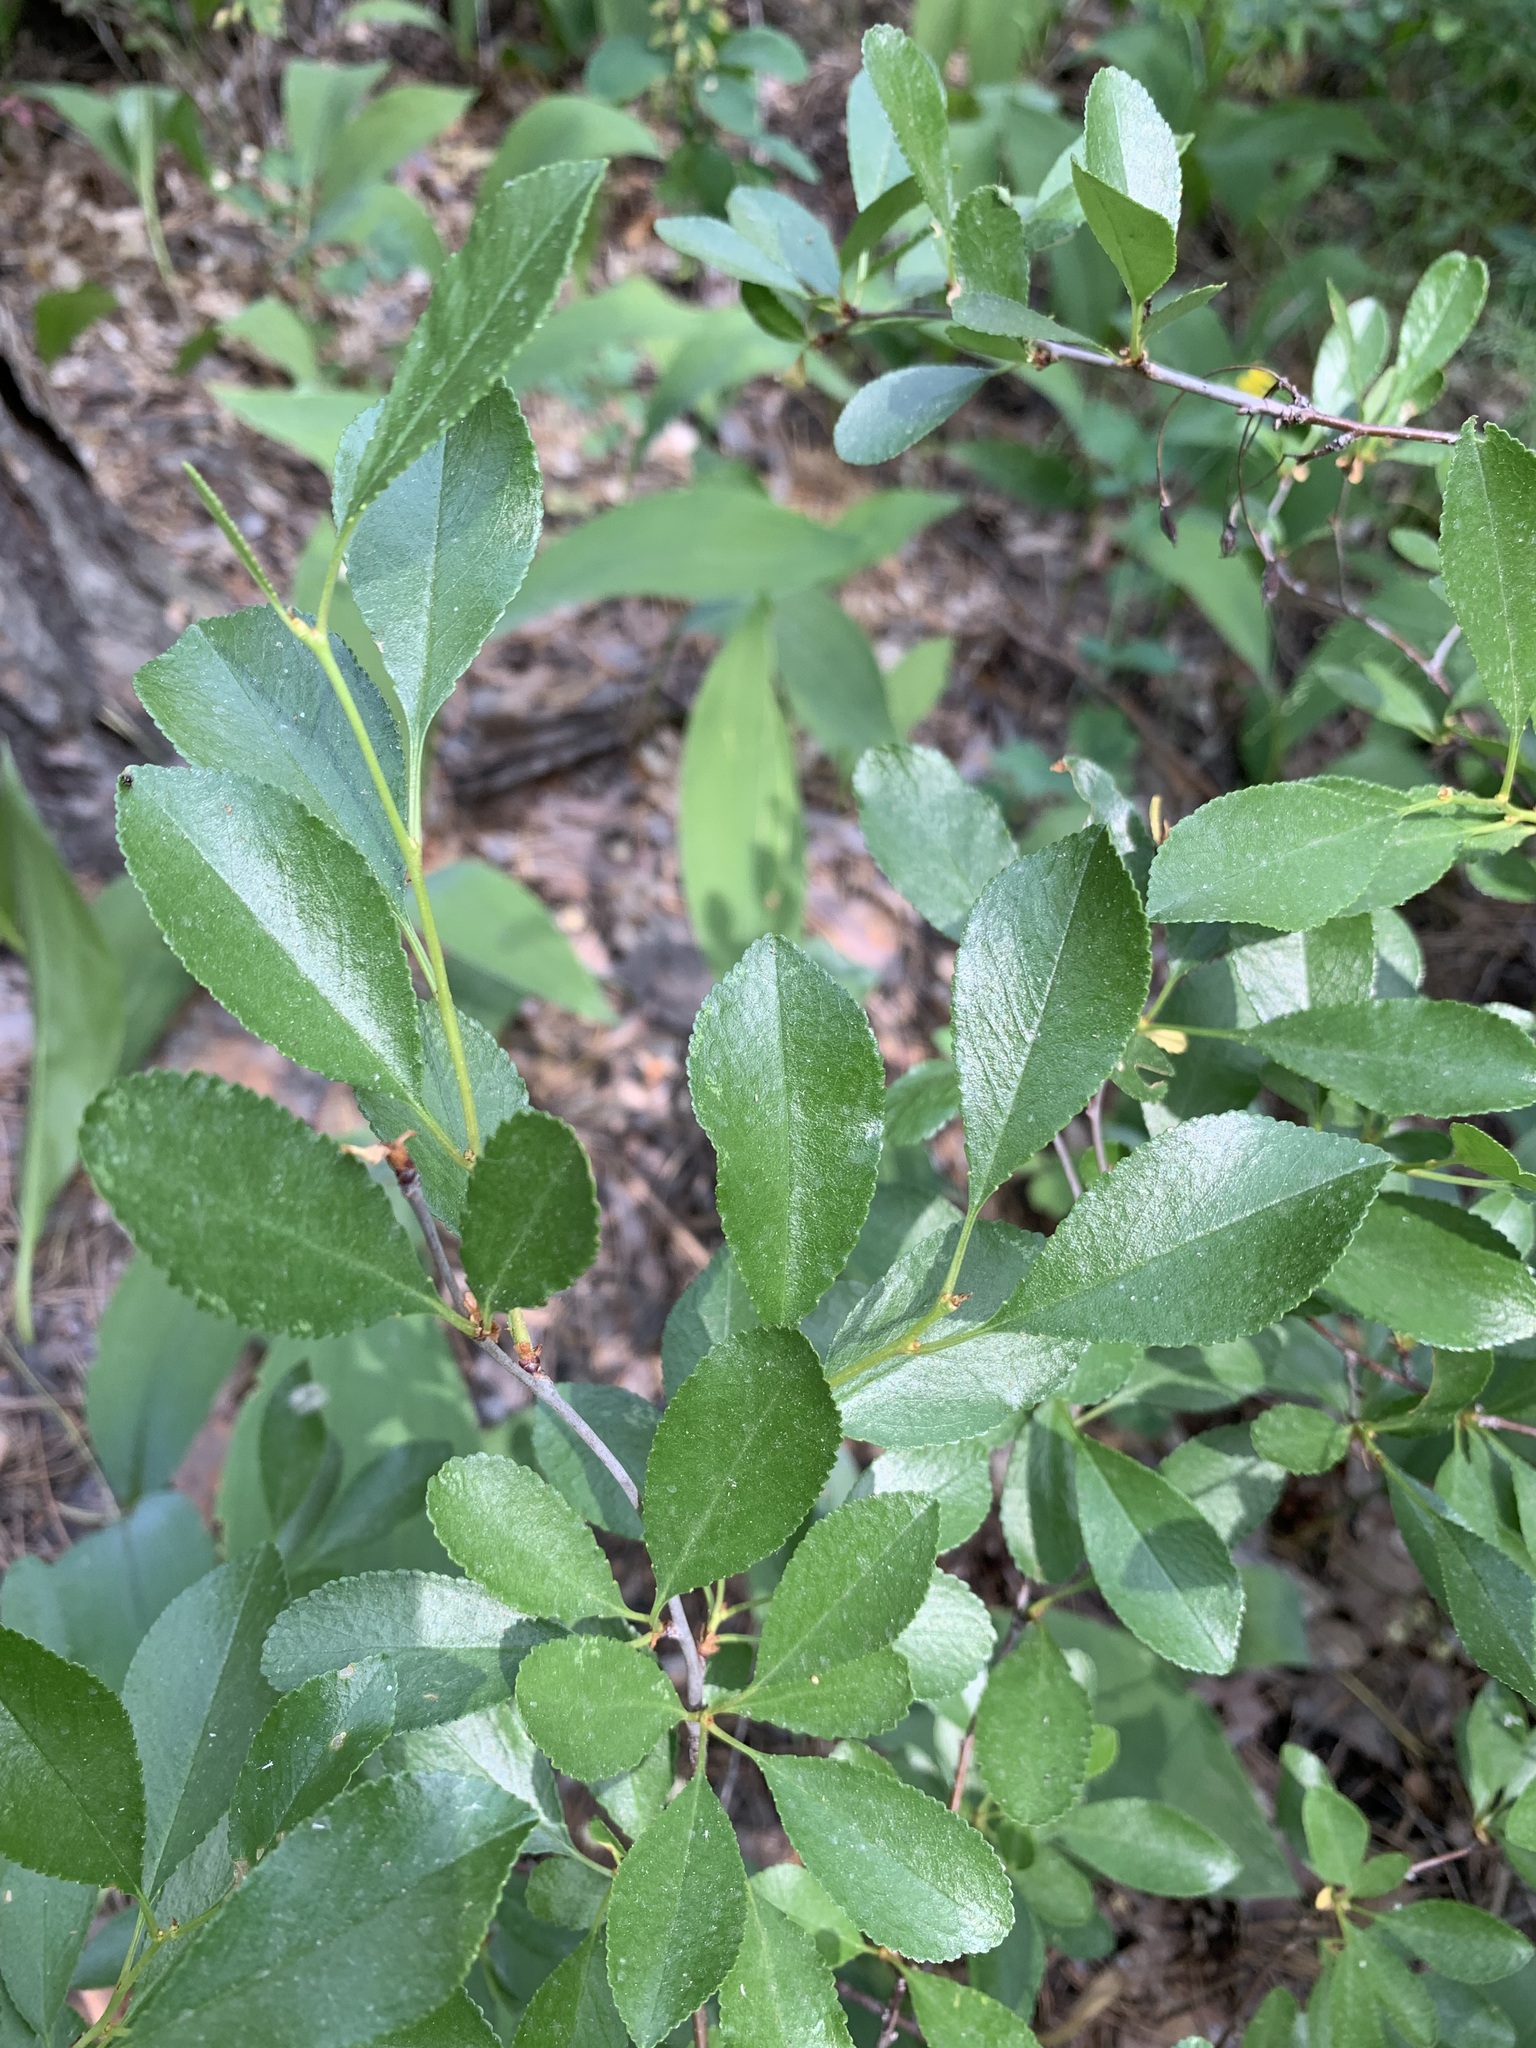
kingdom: Plantae
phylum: Tracheophyta
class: Magnoliopsida
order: Rosales
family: Rosaceae
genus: Prunus
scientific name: Prunus fruticosa
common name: European dwarf cherry
